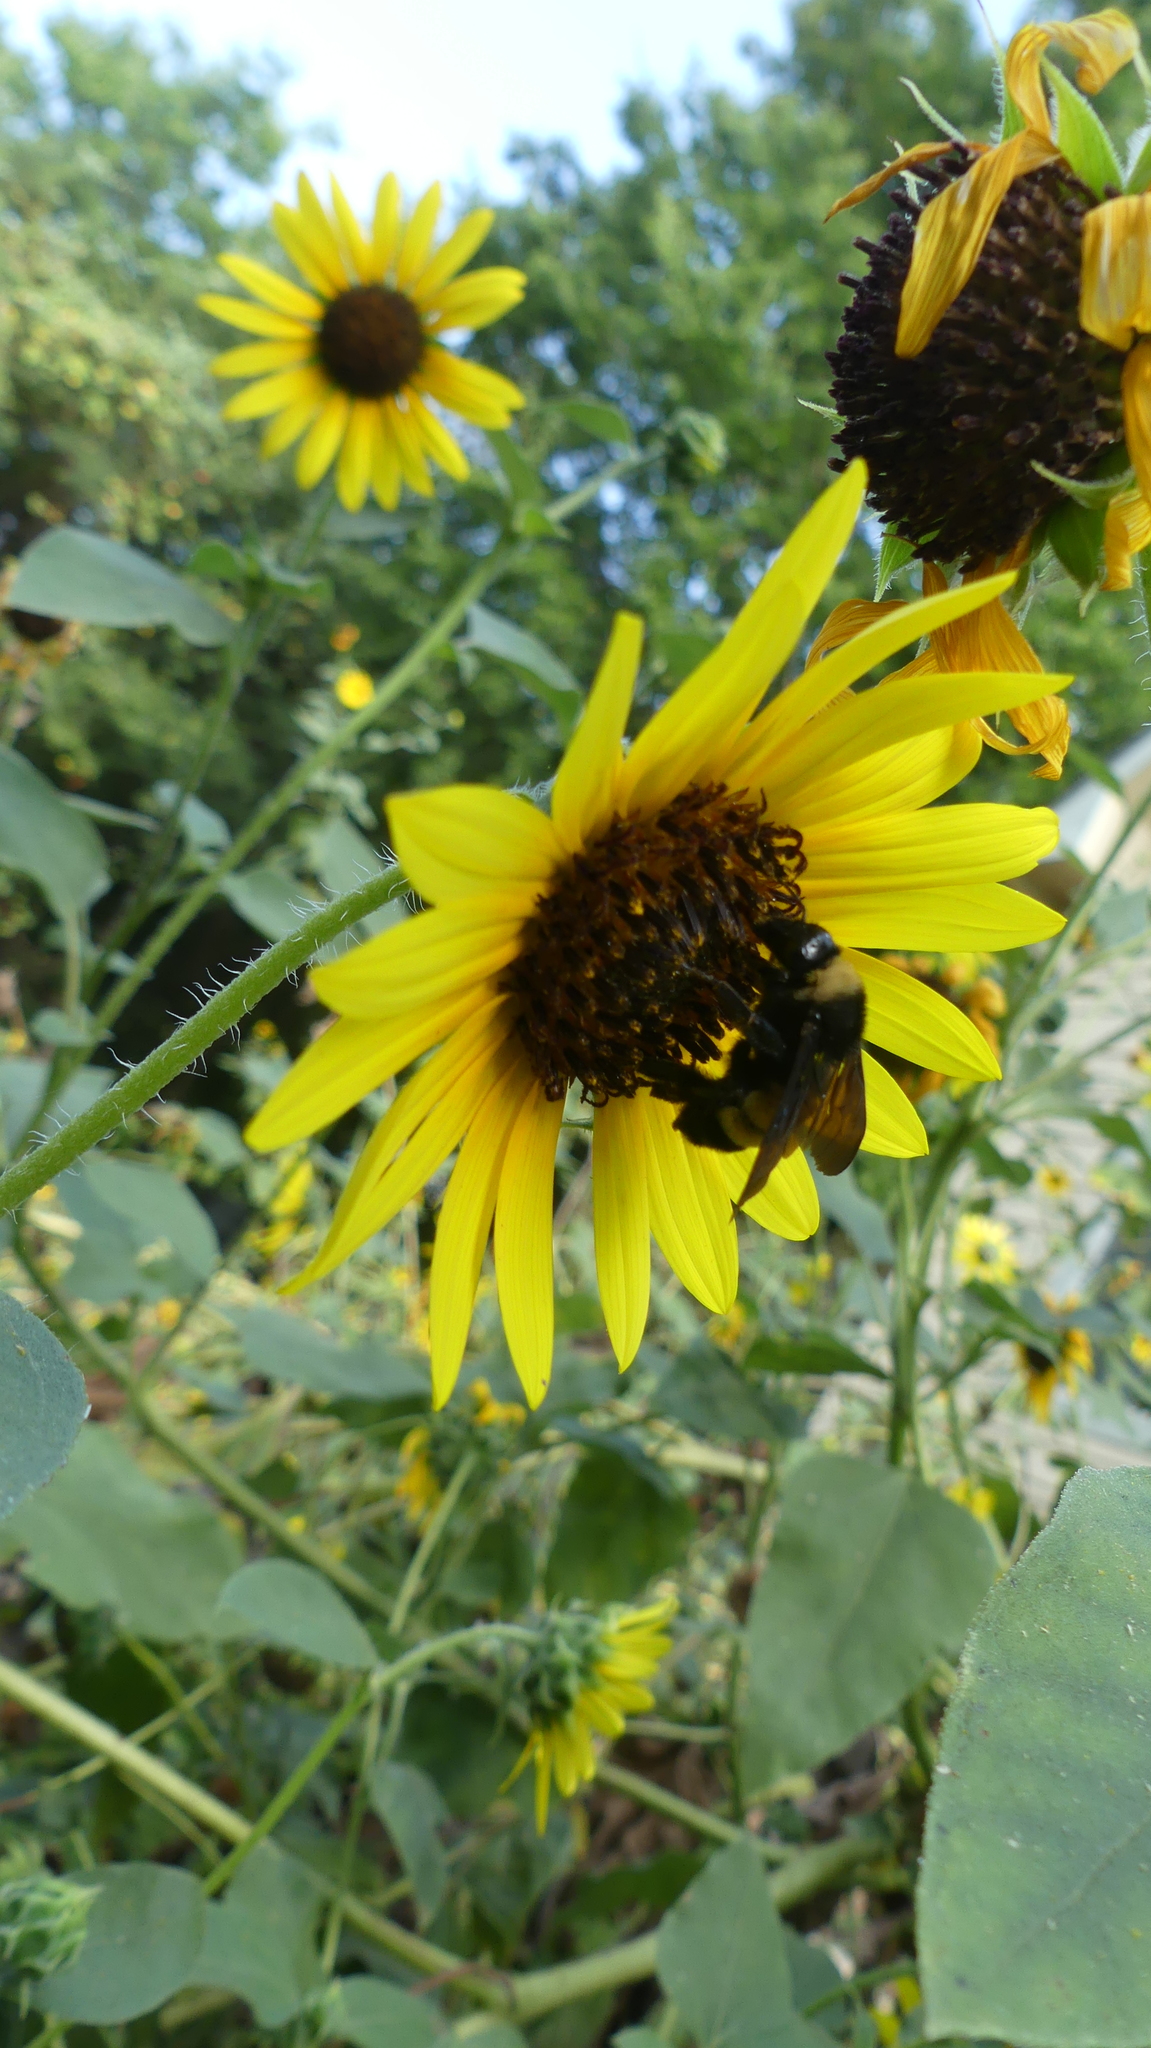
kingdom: Animalia
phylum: Arthropoda
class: Insecta
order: Hymenoptera
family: Apidae
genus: Bombus
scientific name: Bombus pensylvanicus
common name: Bumble bee
